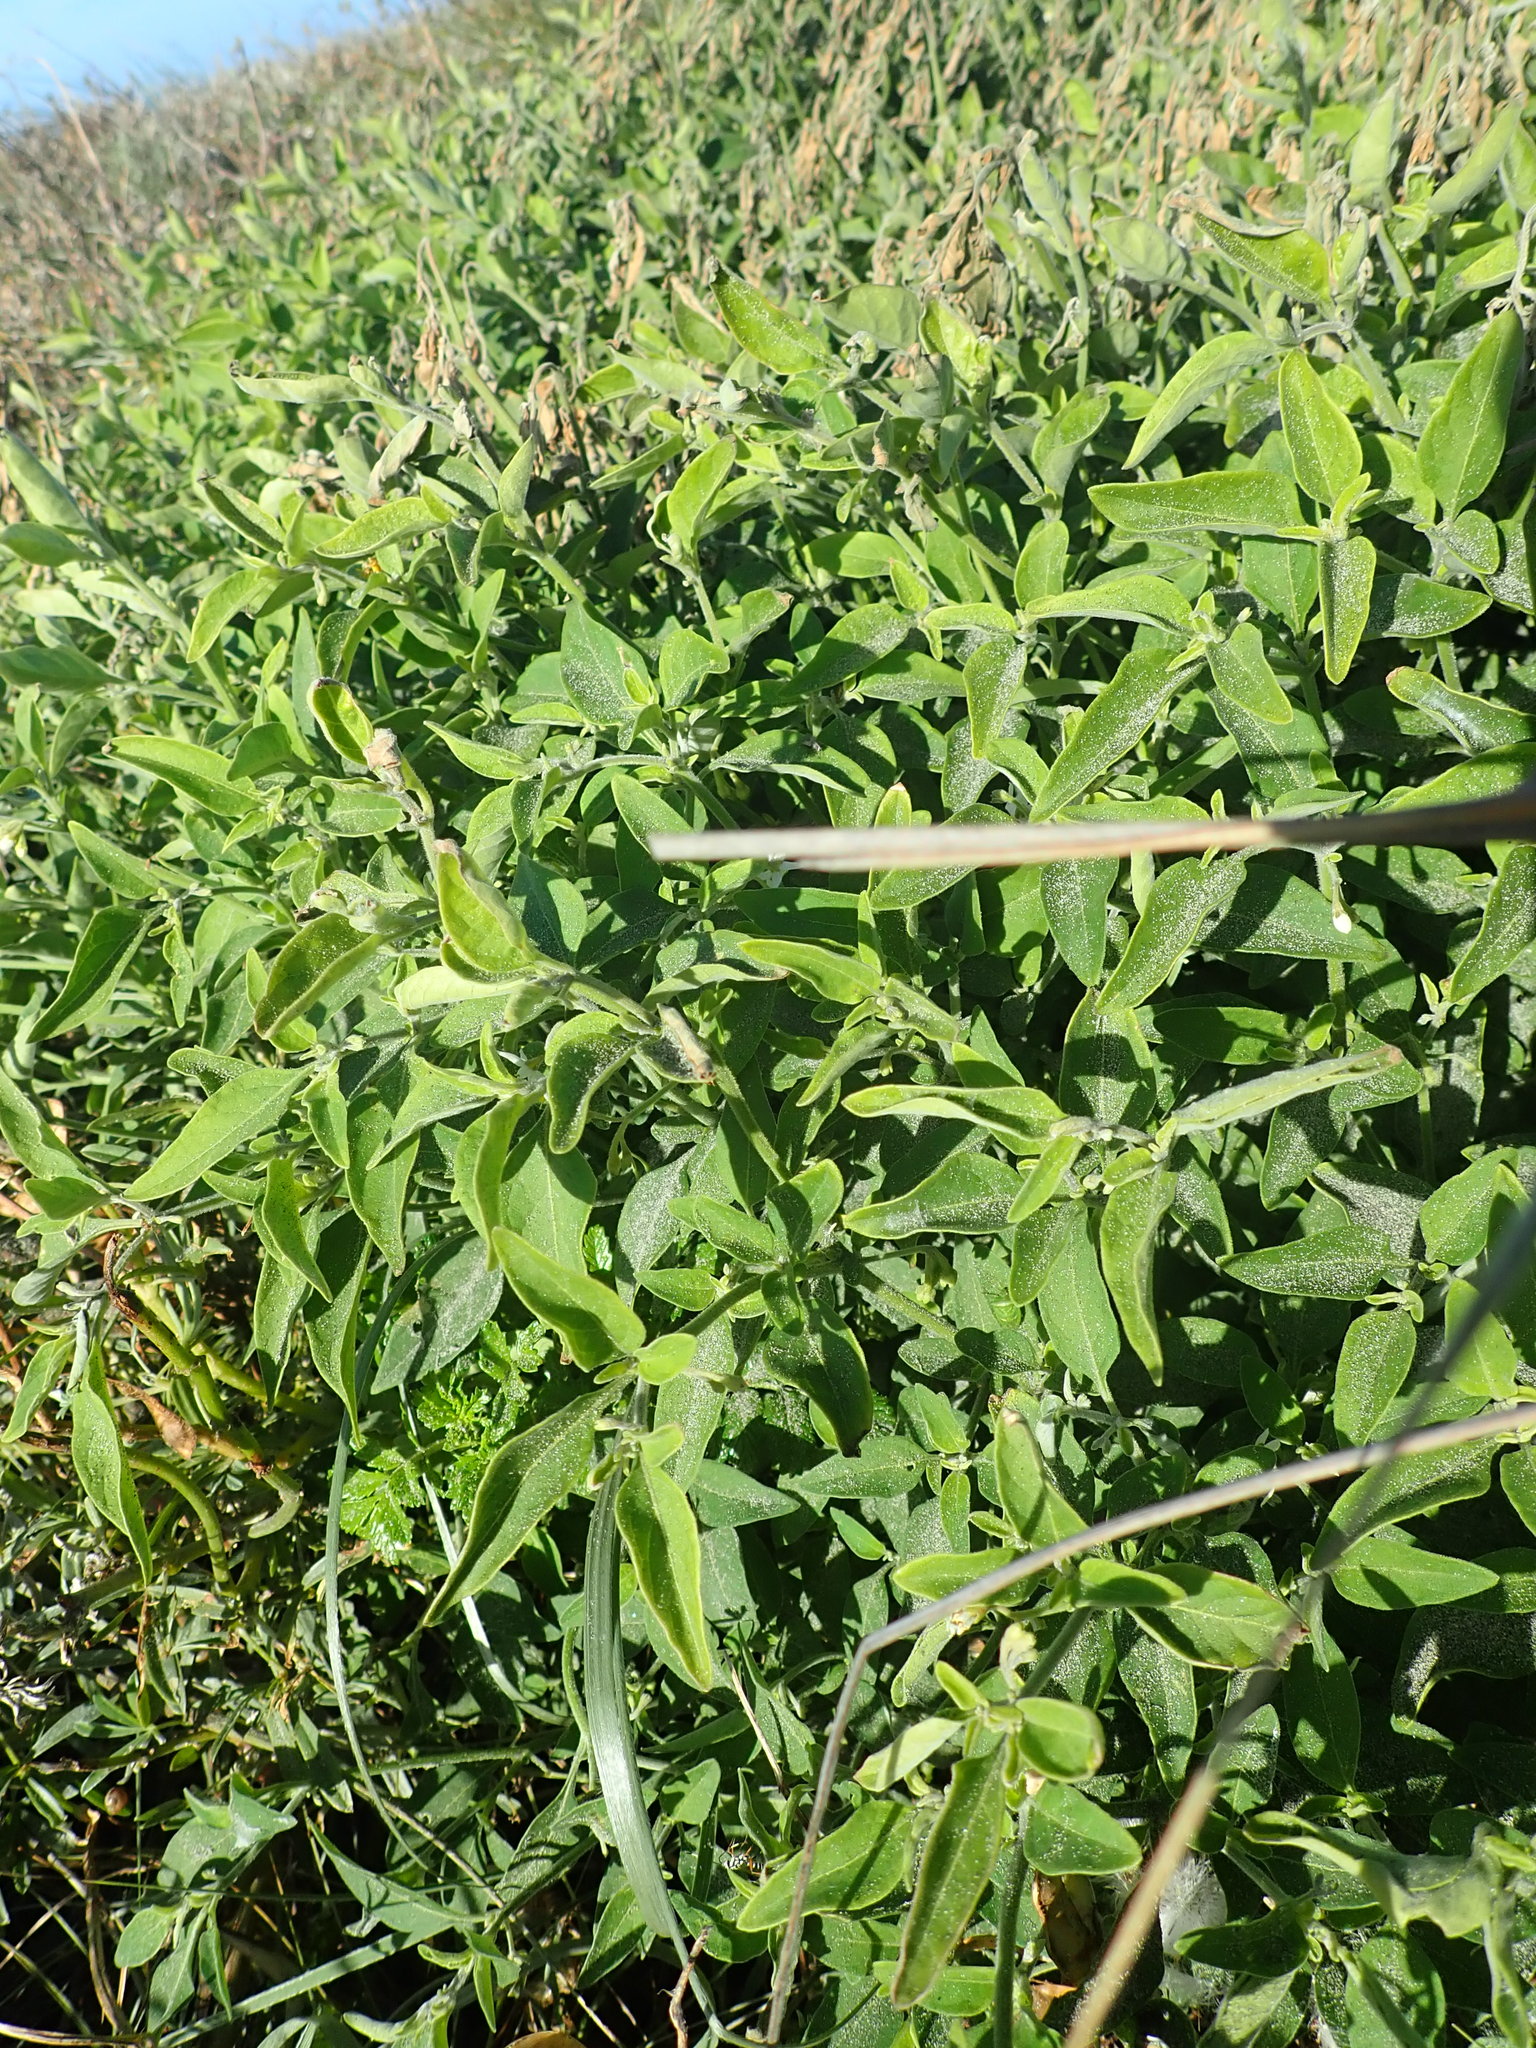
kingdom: Plantae
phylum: Tracheophyta
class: Magnoliopsida
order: Solanales
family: Solanaceae
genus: Solanum
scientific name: Solanum chenopodioides
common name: Tall nightshade
